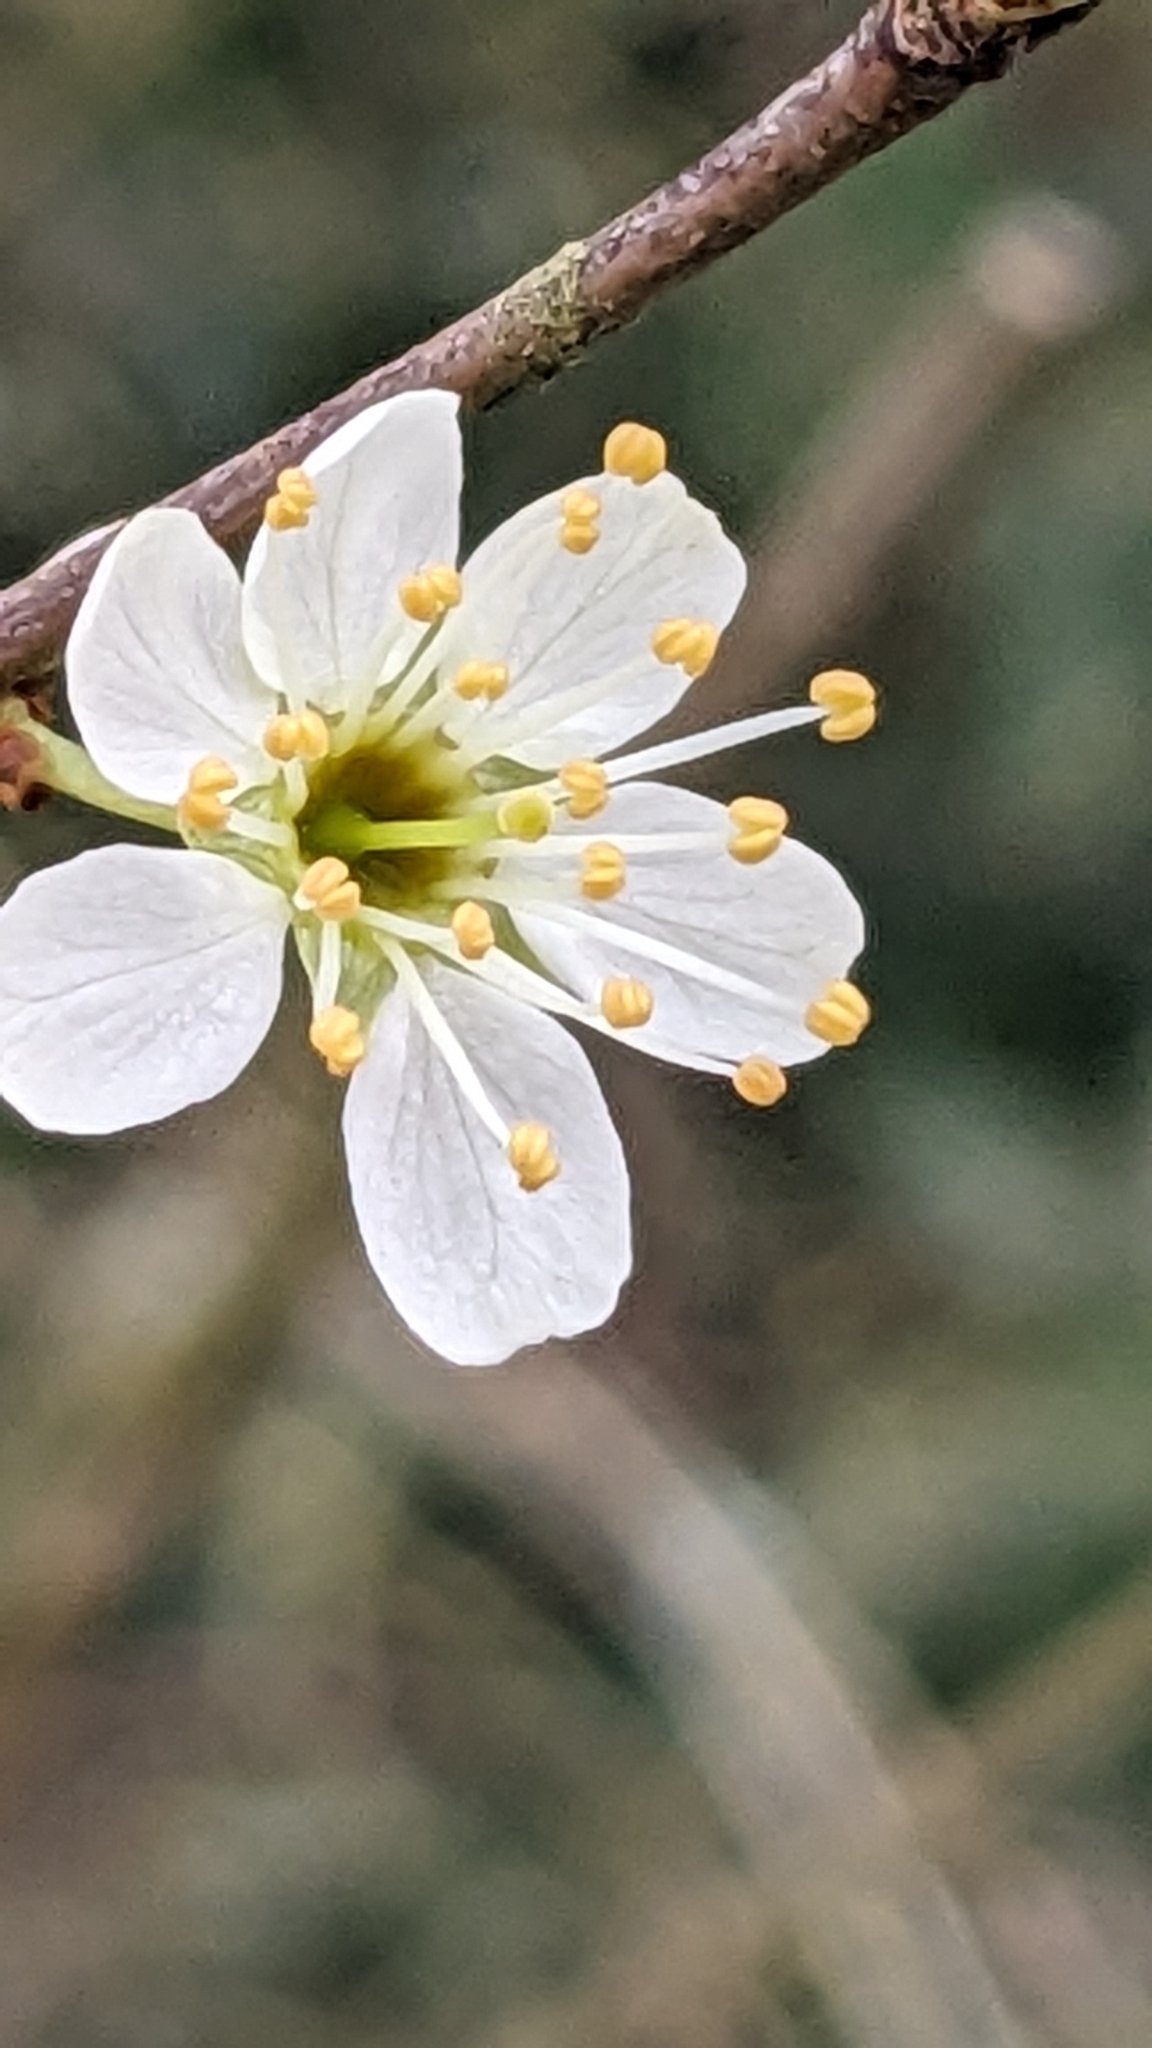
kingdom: Plantae
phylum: Tracheophyta
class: Magnoliopsida
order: Rosales
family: Rosaceae
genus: Prunus
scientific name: Prunus spinosa
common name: Blackthorn
